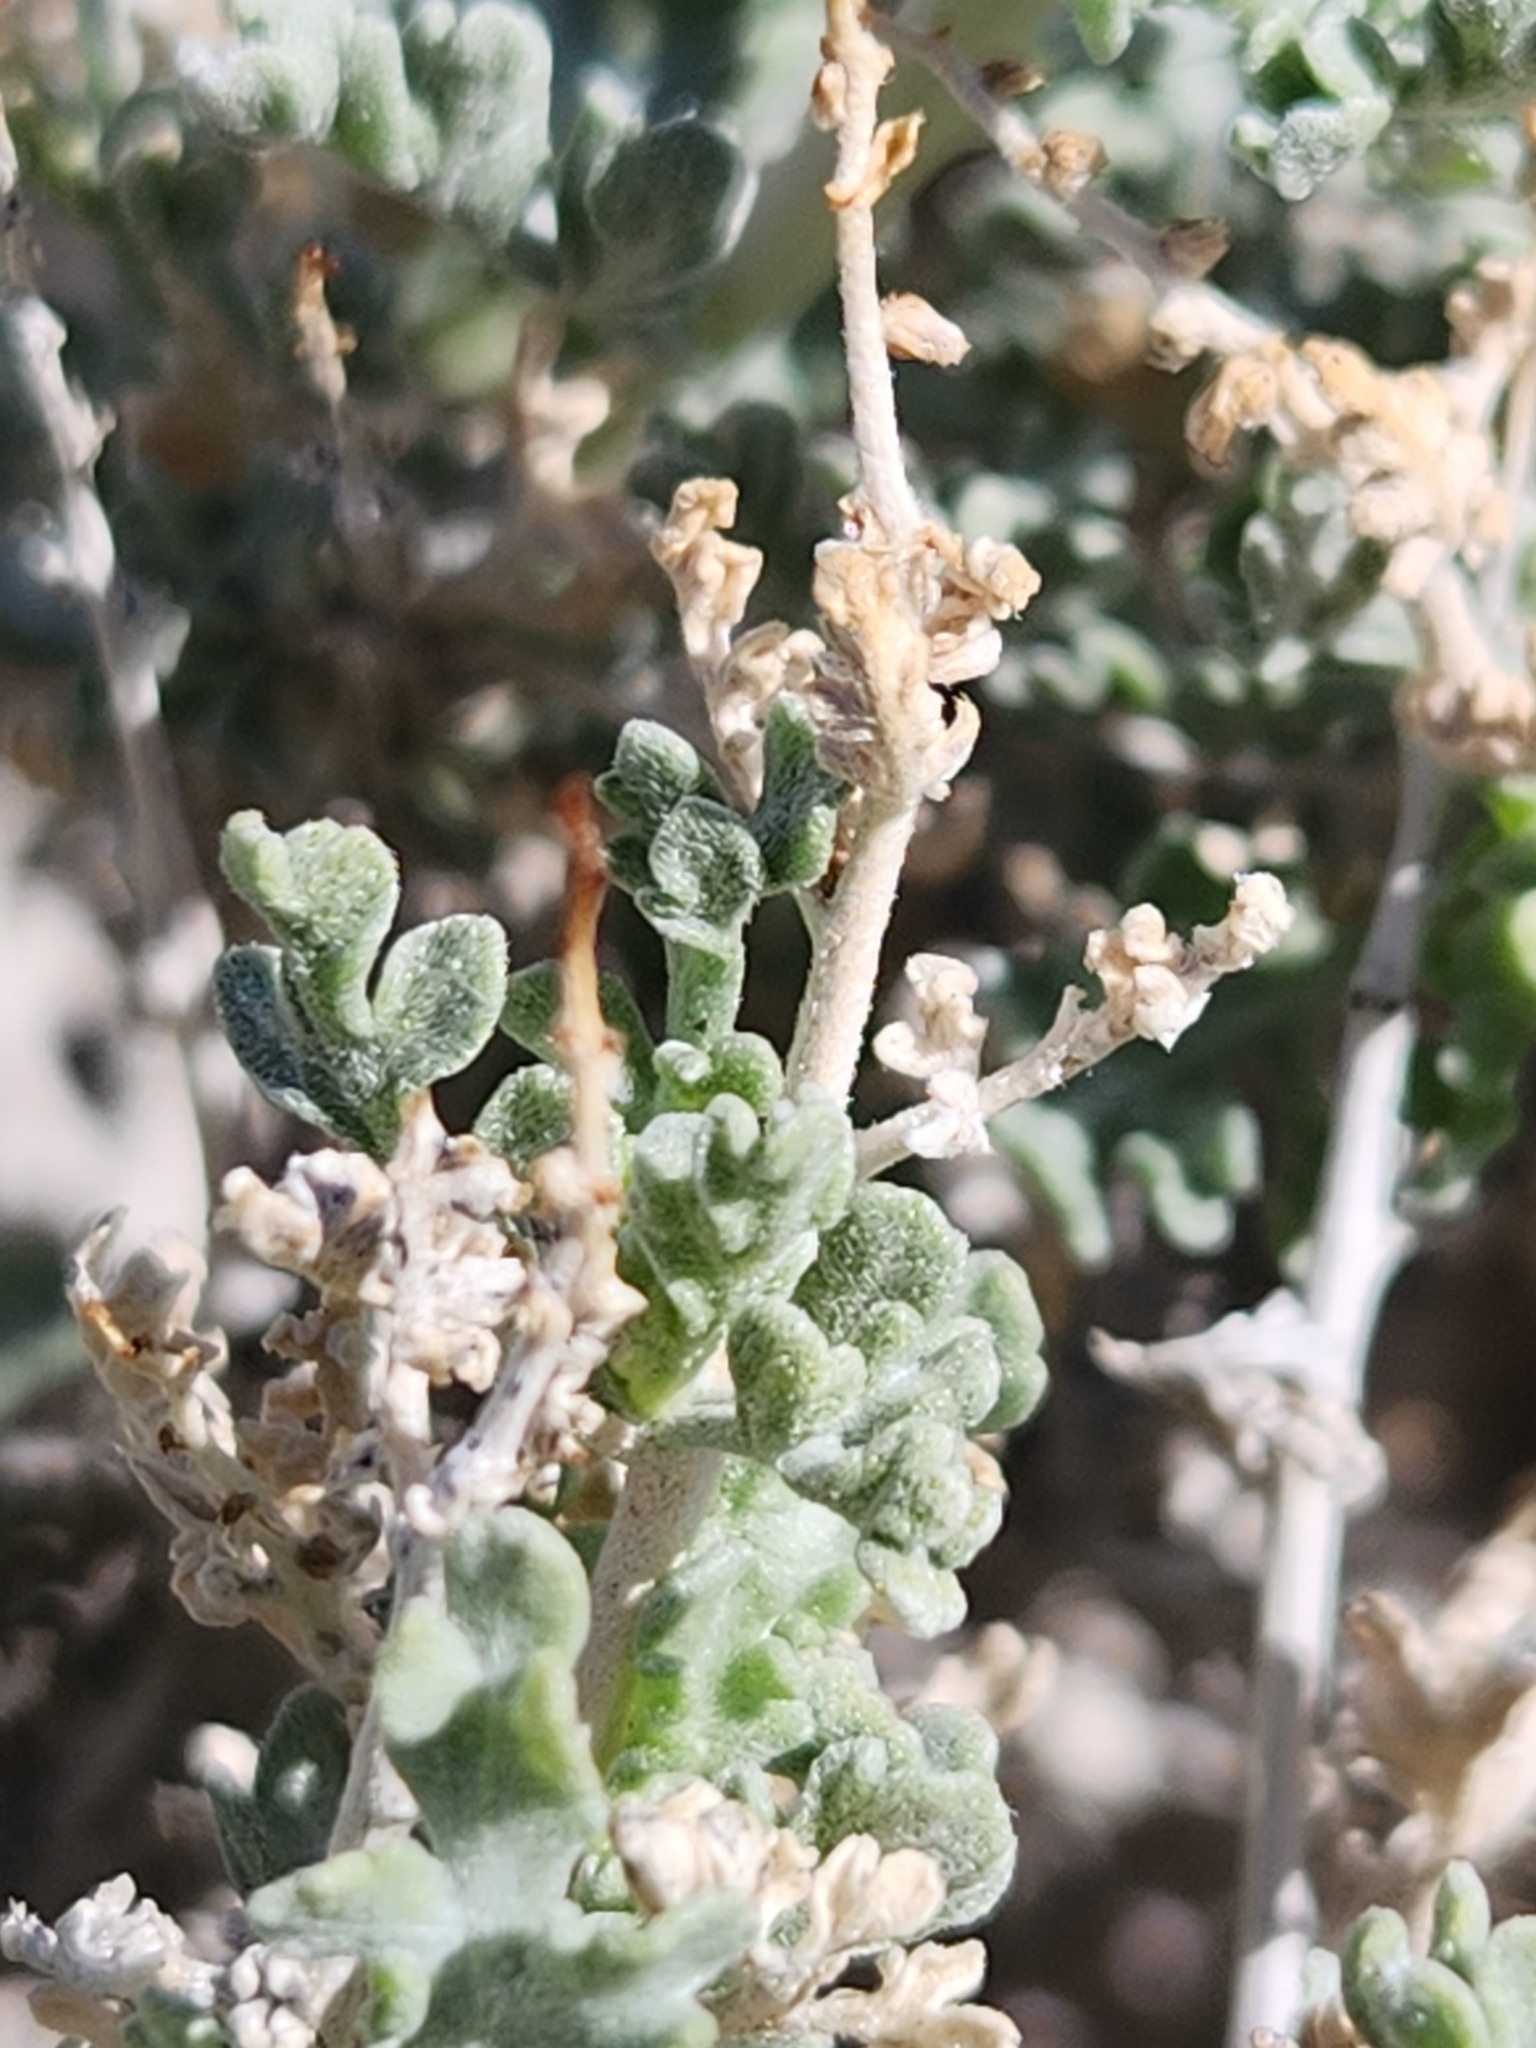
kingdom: Plantae
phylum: Tracheophyta
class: Magnoliopsida
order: Asterales
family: Asteraceae
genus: Ambrosia
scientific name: Ambrosia dumosa
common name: Bur-sage
